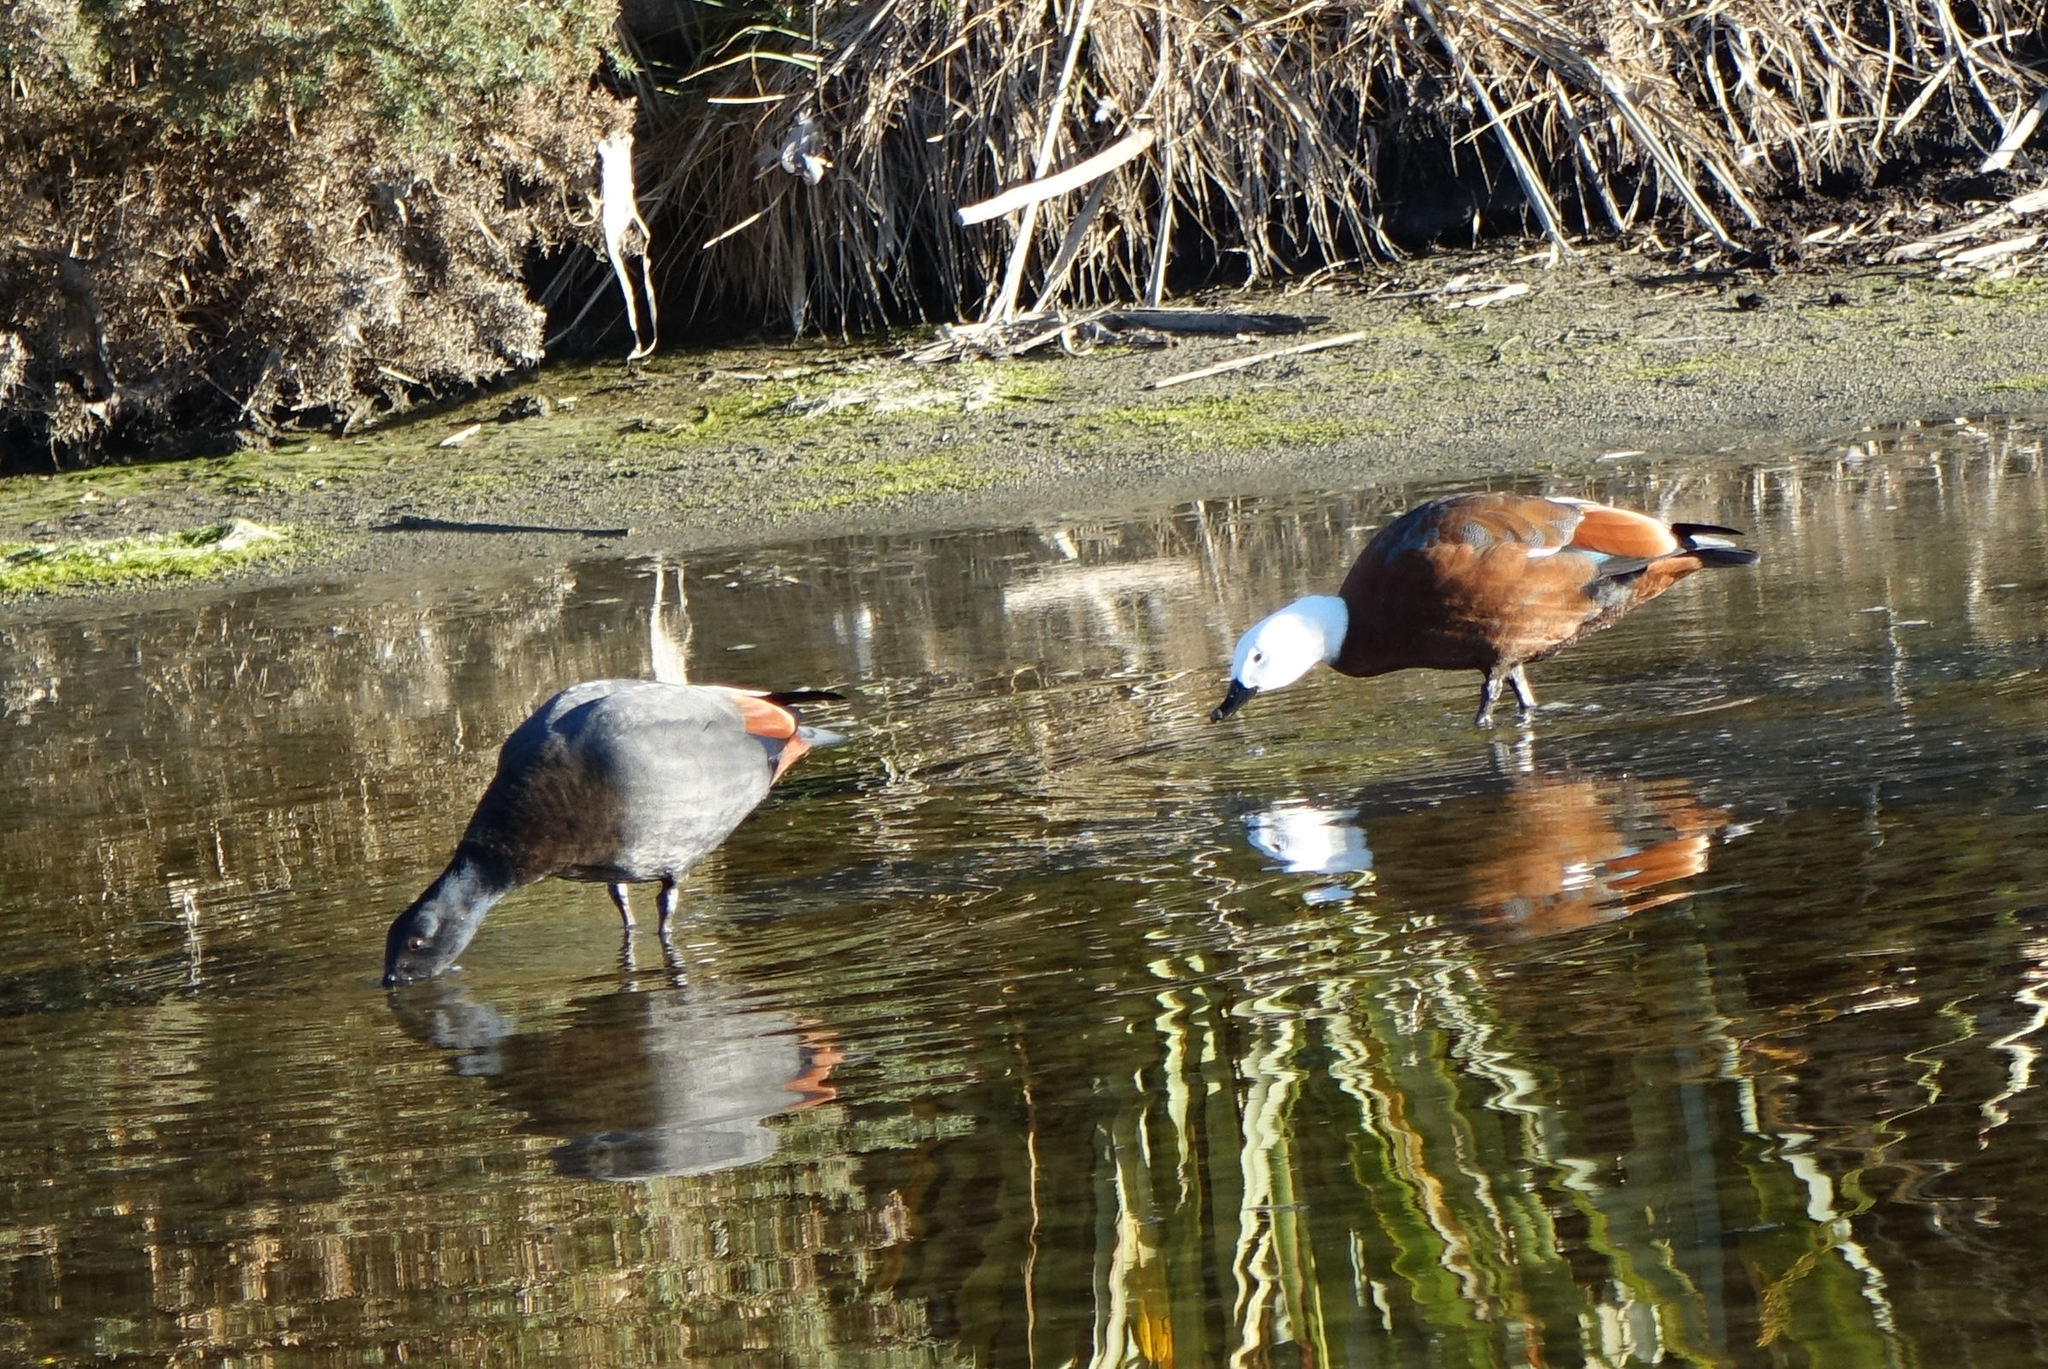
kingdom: Animalia
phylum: Chordata
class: Aves
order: Anseriformes
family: Anatidae
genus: Tadorna
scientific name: Tadorna variegata
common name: Paradise shelduck
